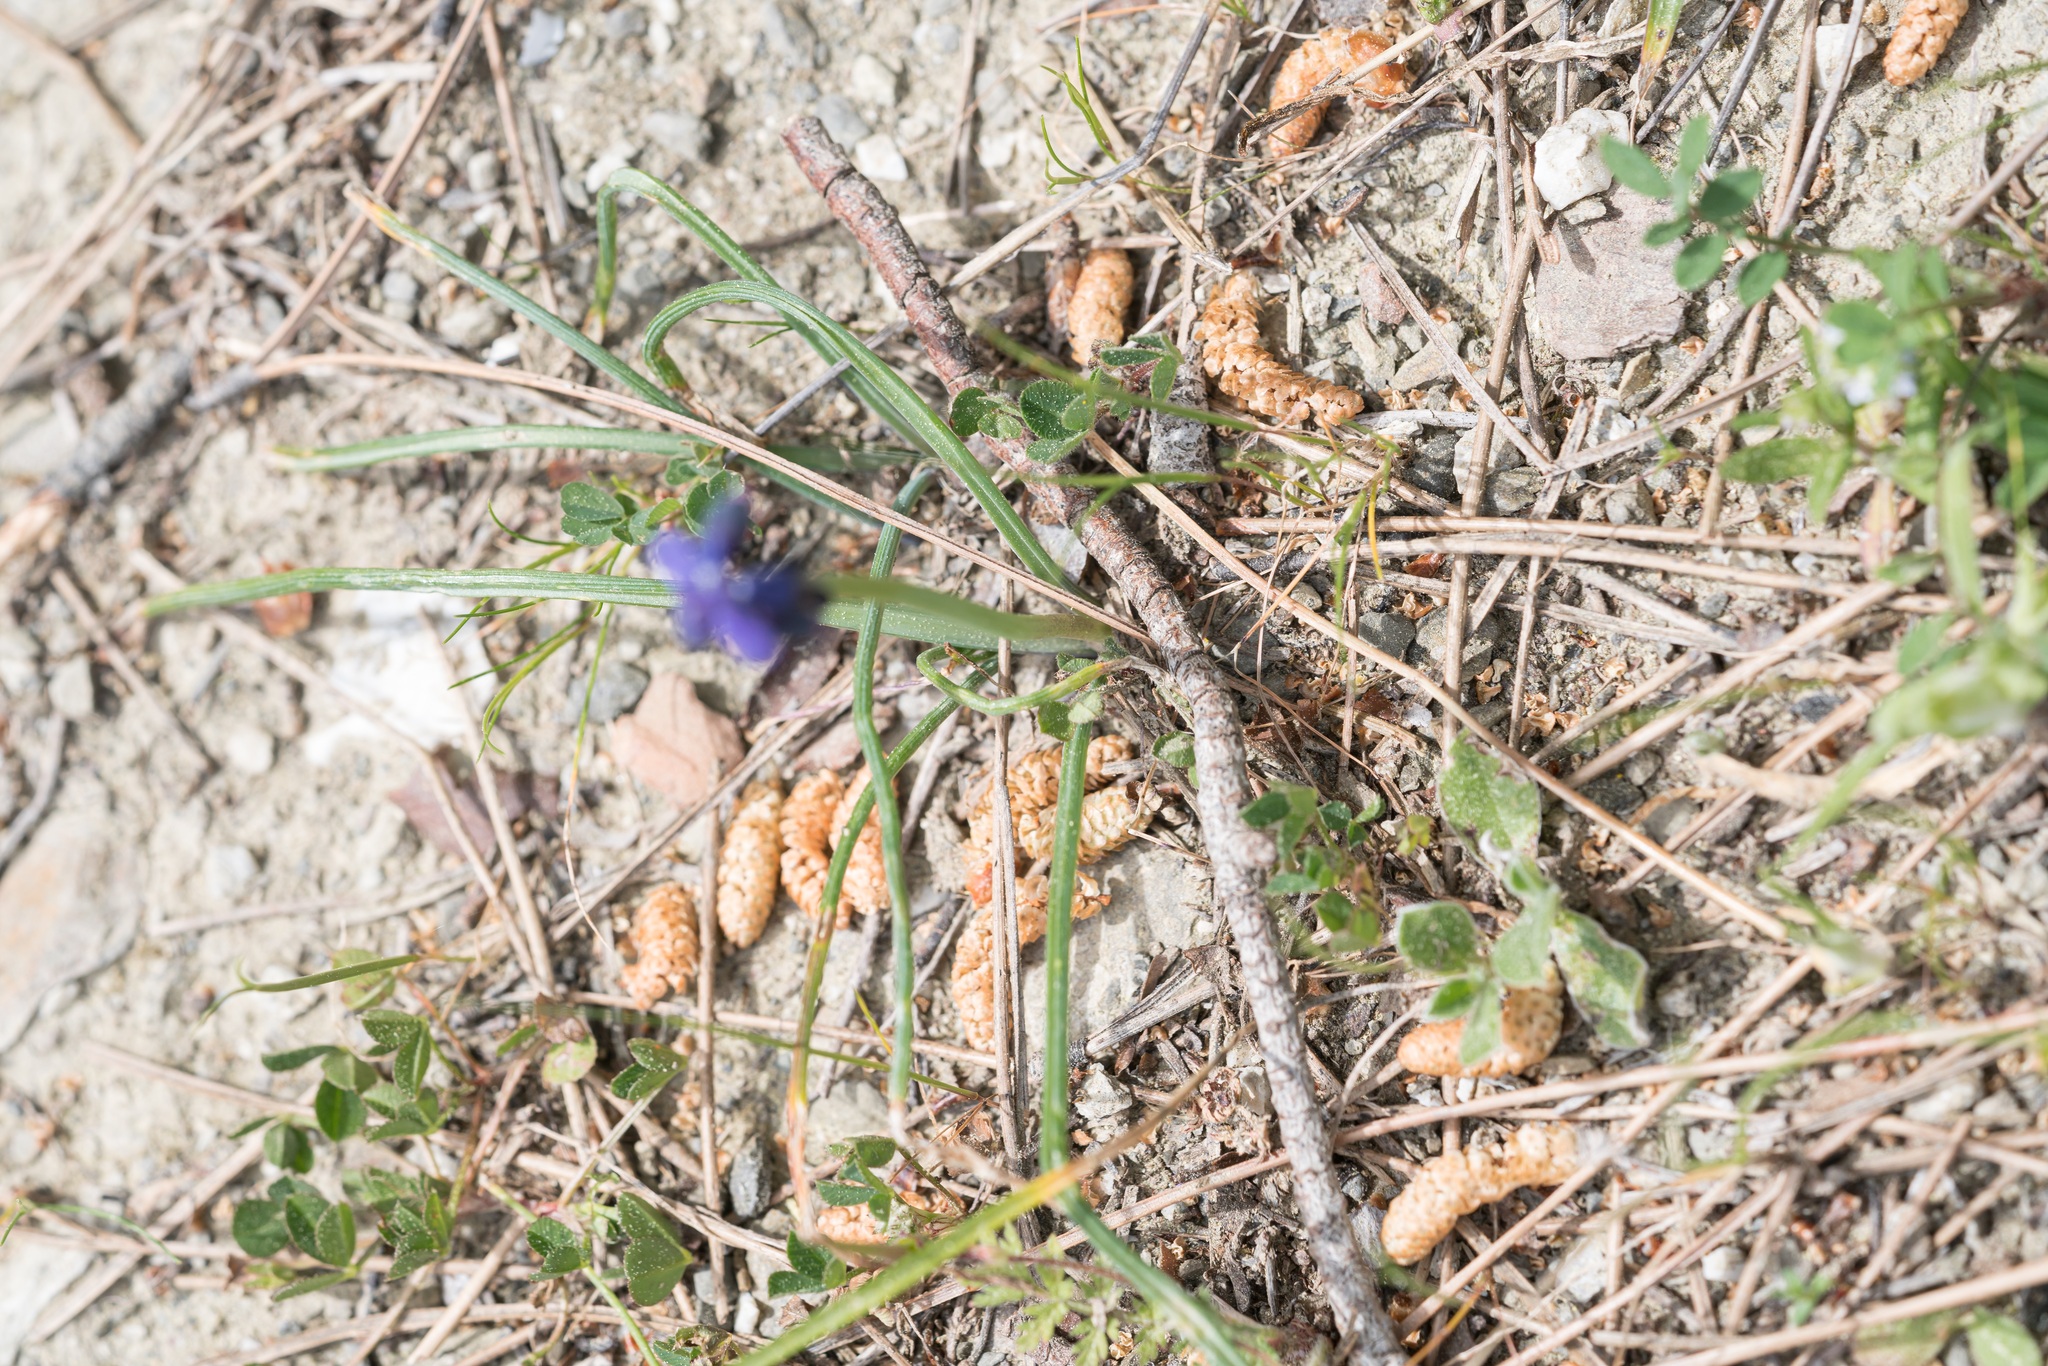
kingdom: Plantae
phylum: Tracheophyta
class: Liliopsida
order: Asparagales
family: Asparagaceae
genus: Muscari
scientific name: Muscari neglectum
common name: Grape-hyacinth
